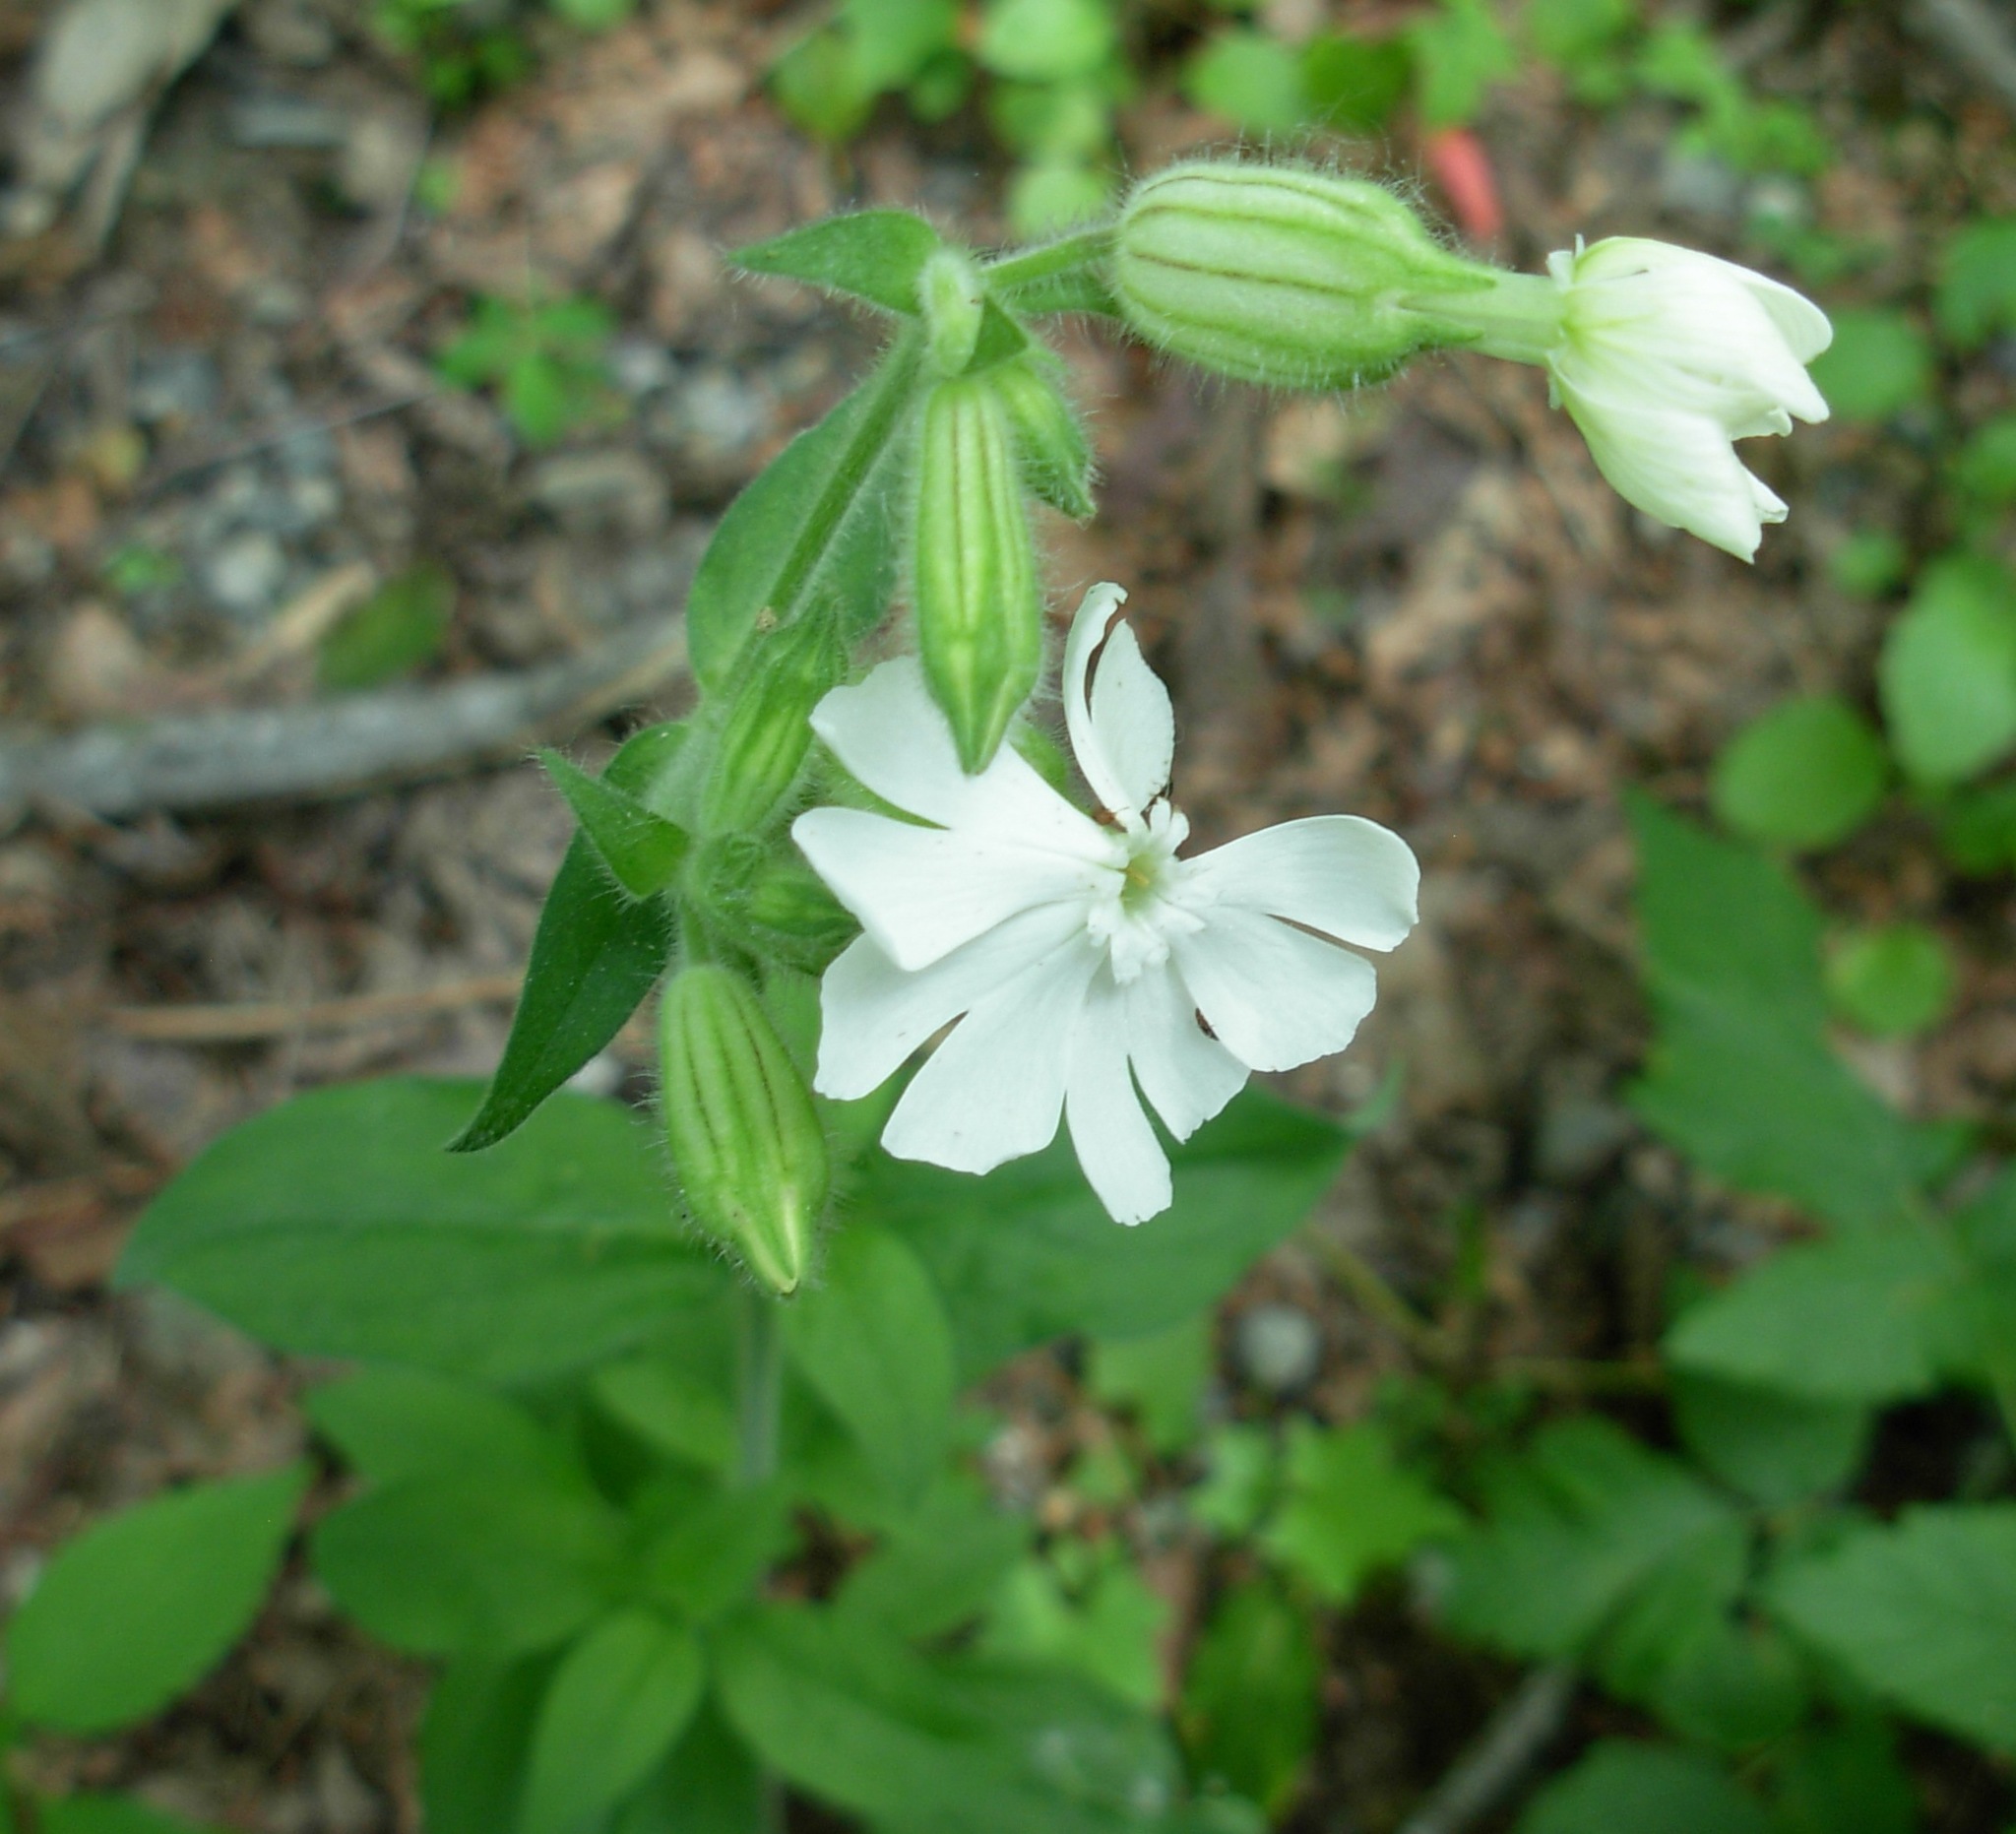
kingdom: Plantae
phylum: Tracheophyta
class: Magnoliopsida
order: Caryophyllales
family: Caryophyllaceae
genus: Silene
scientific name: Silene latifolia
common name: White campion
